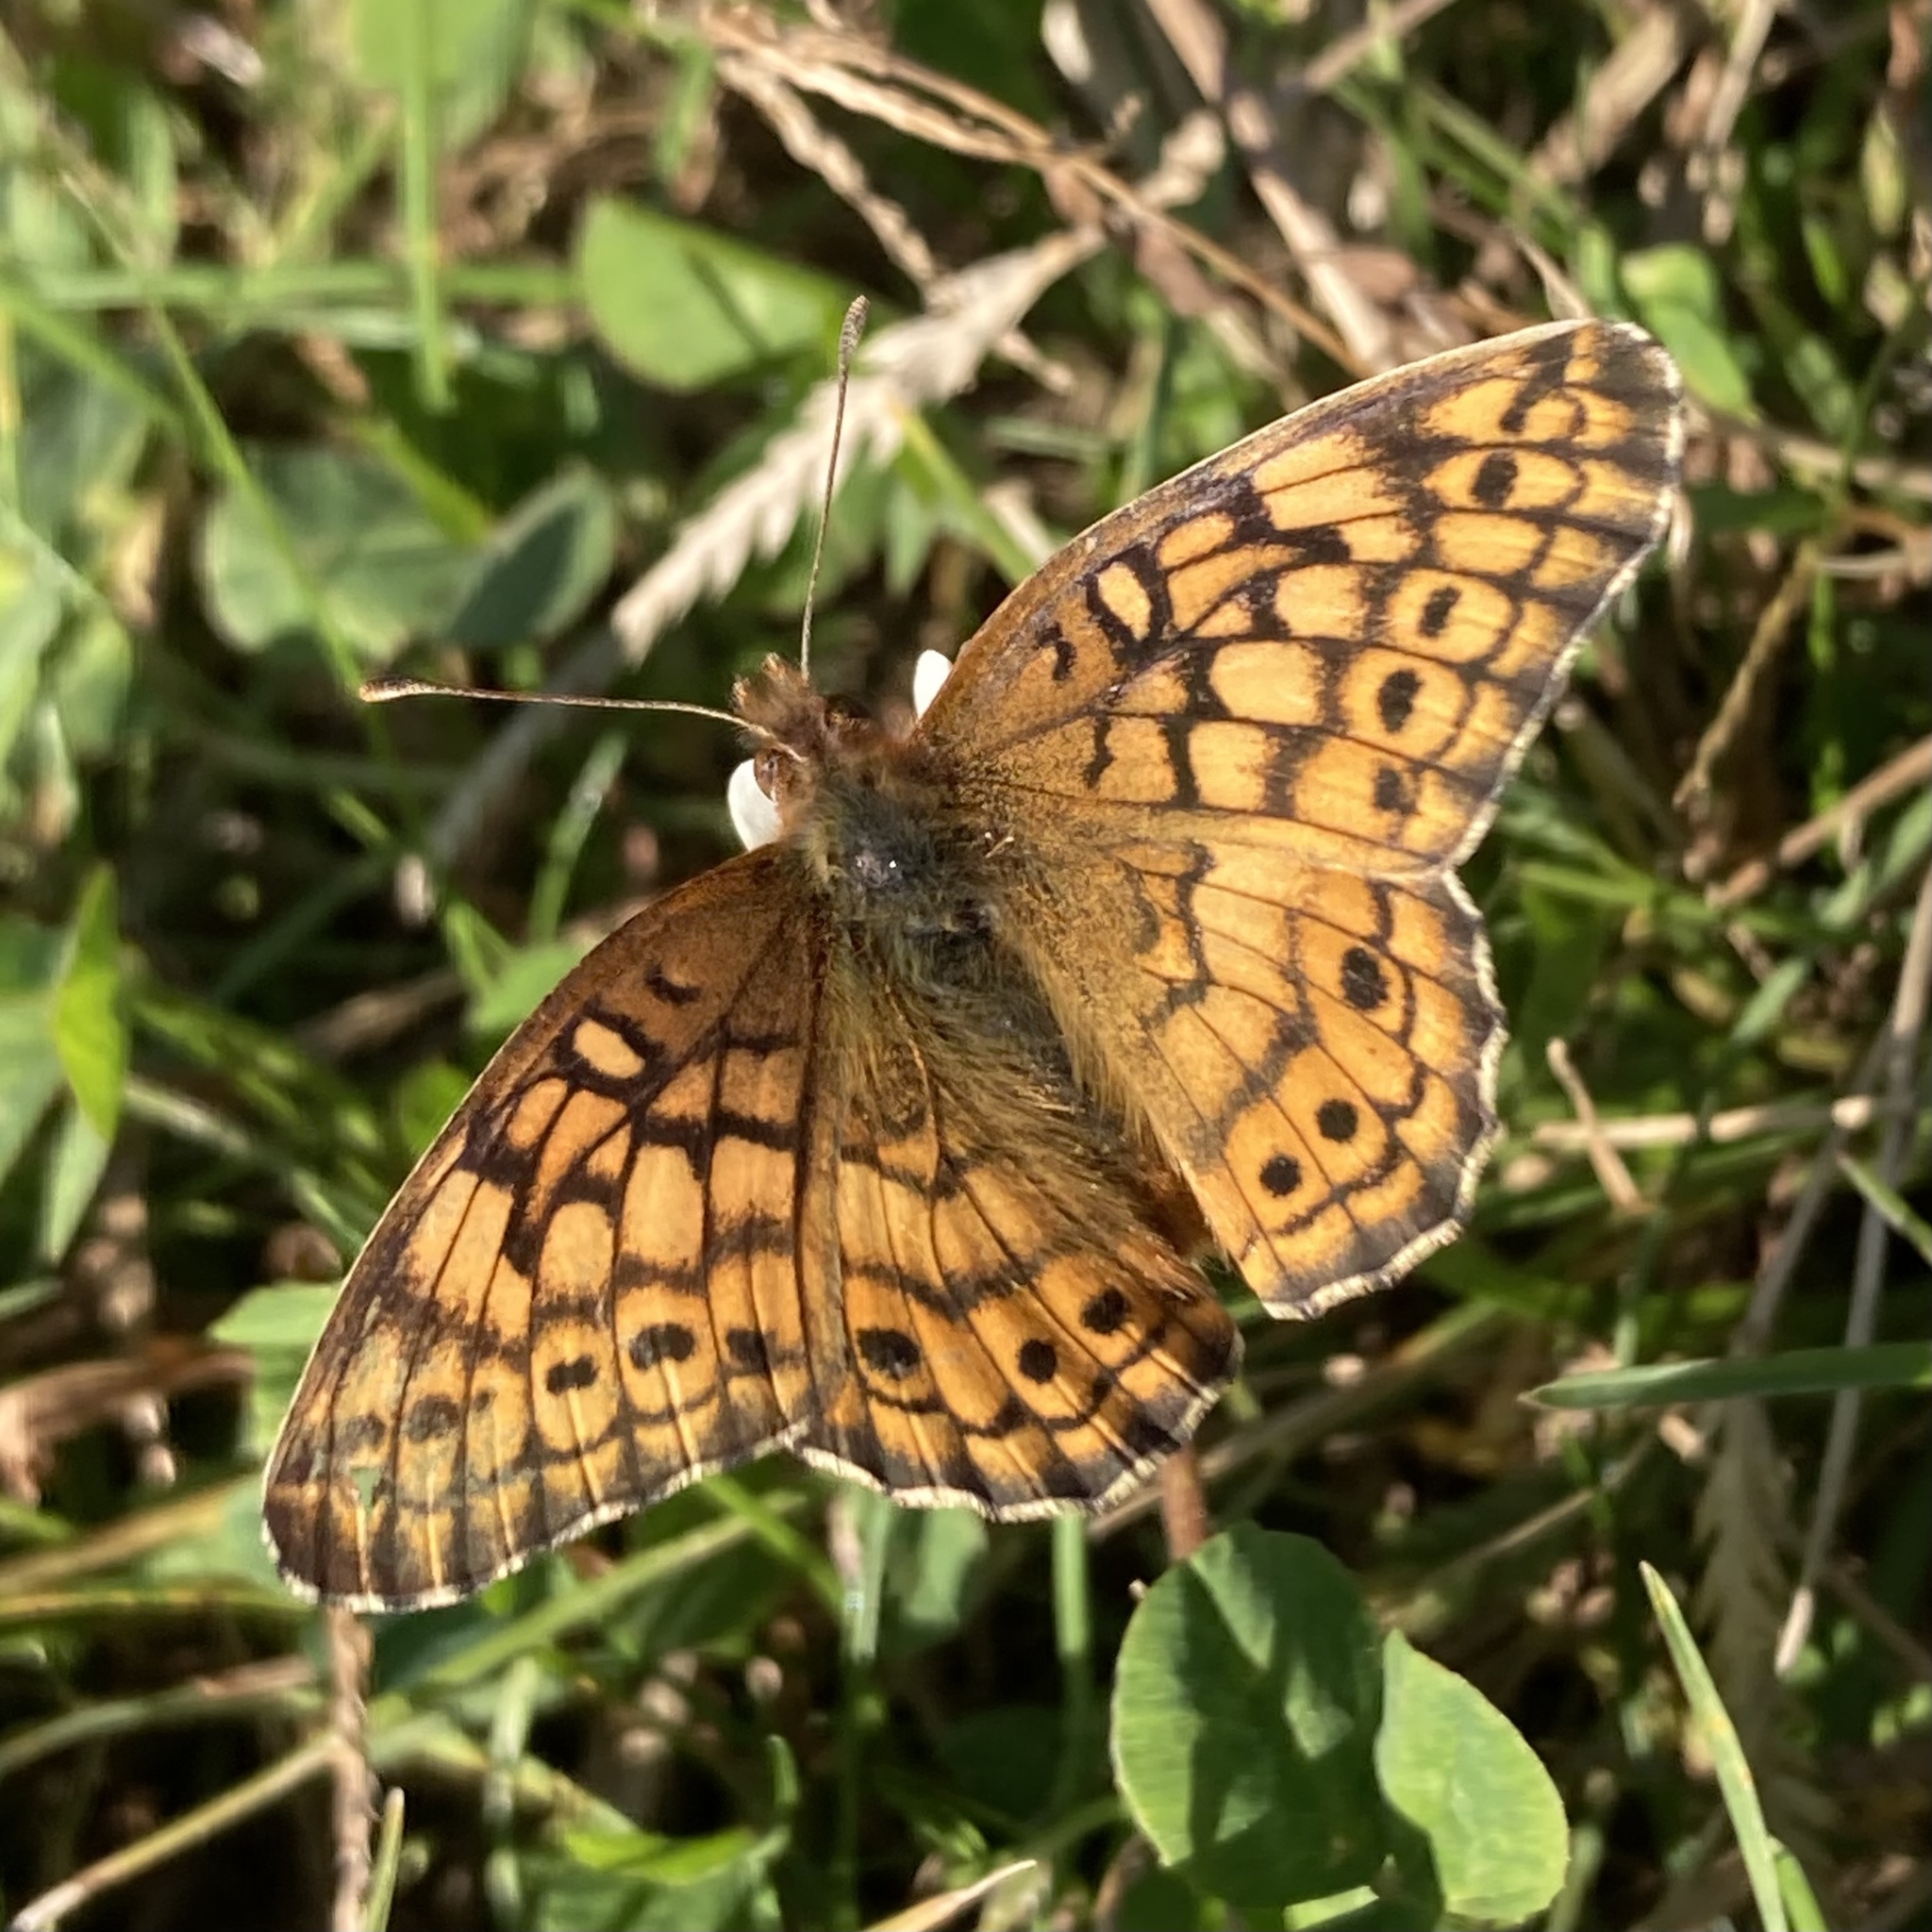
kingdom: Animalia
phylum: Arthropoda
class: Insecta
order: Lepidoptera
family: Nymphalidae
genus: Euptoieta
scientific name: Euptoieta claudia
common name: Variegated fritillary
